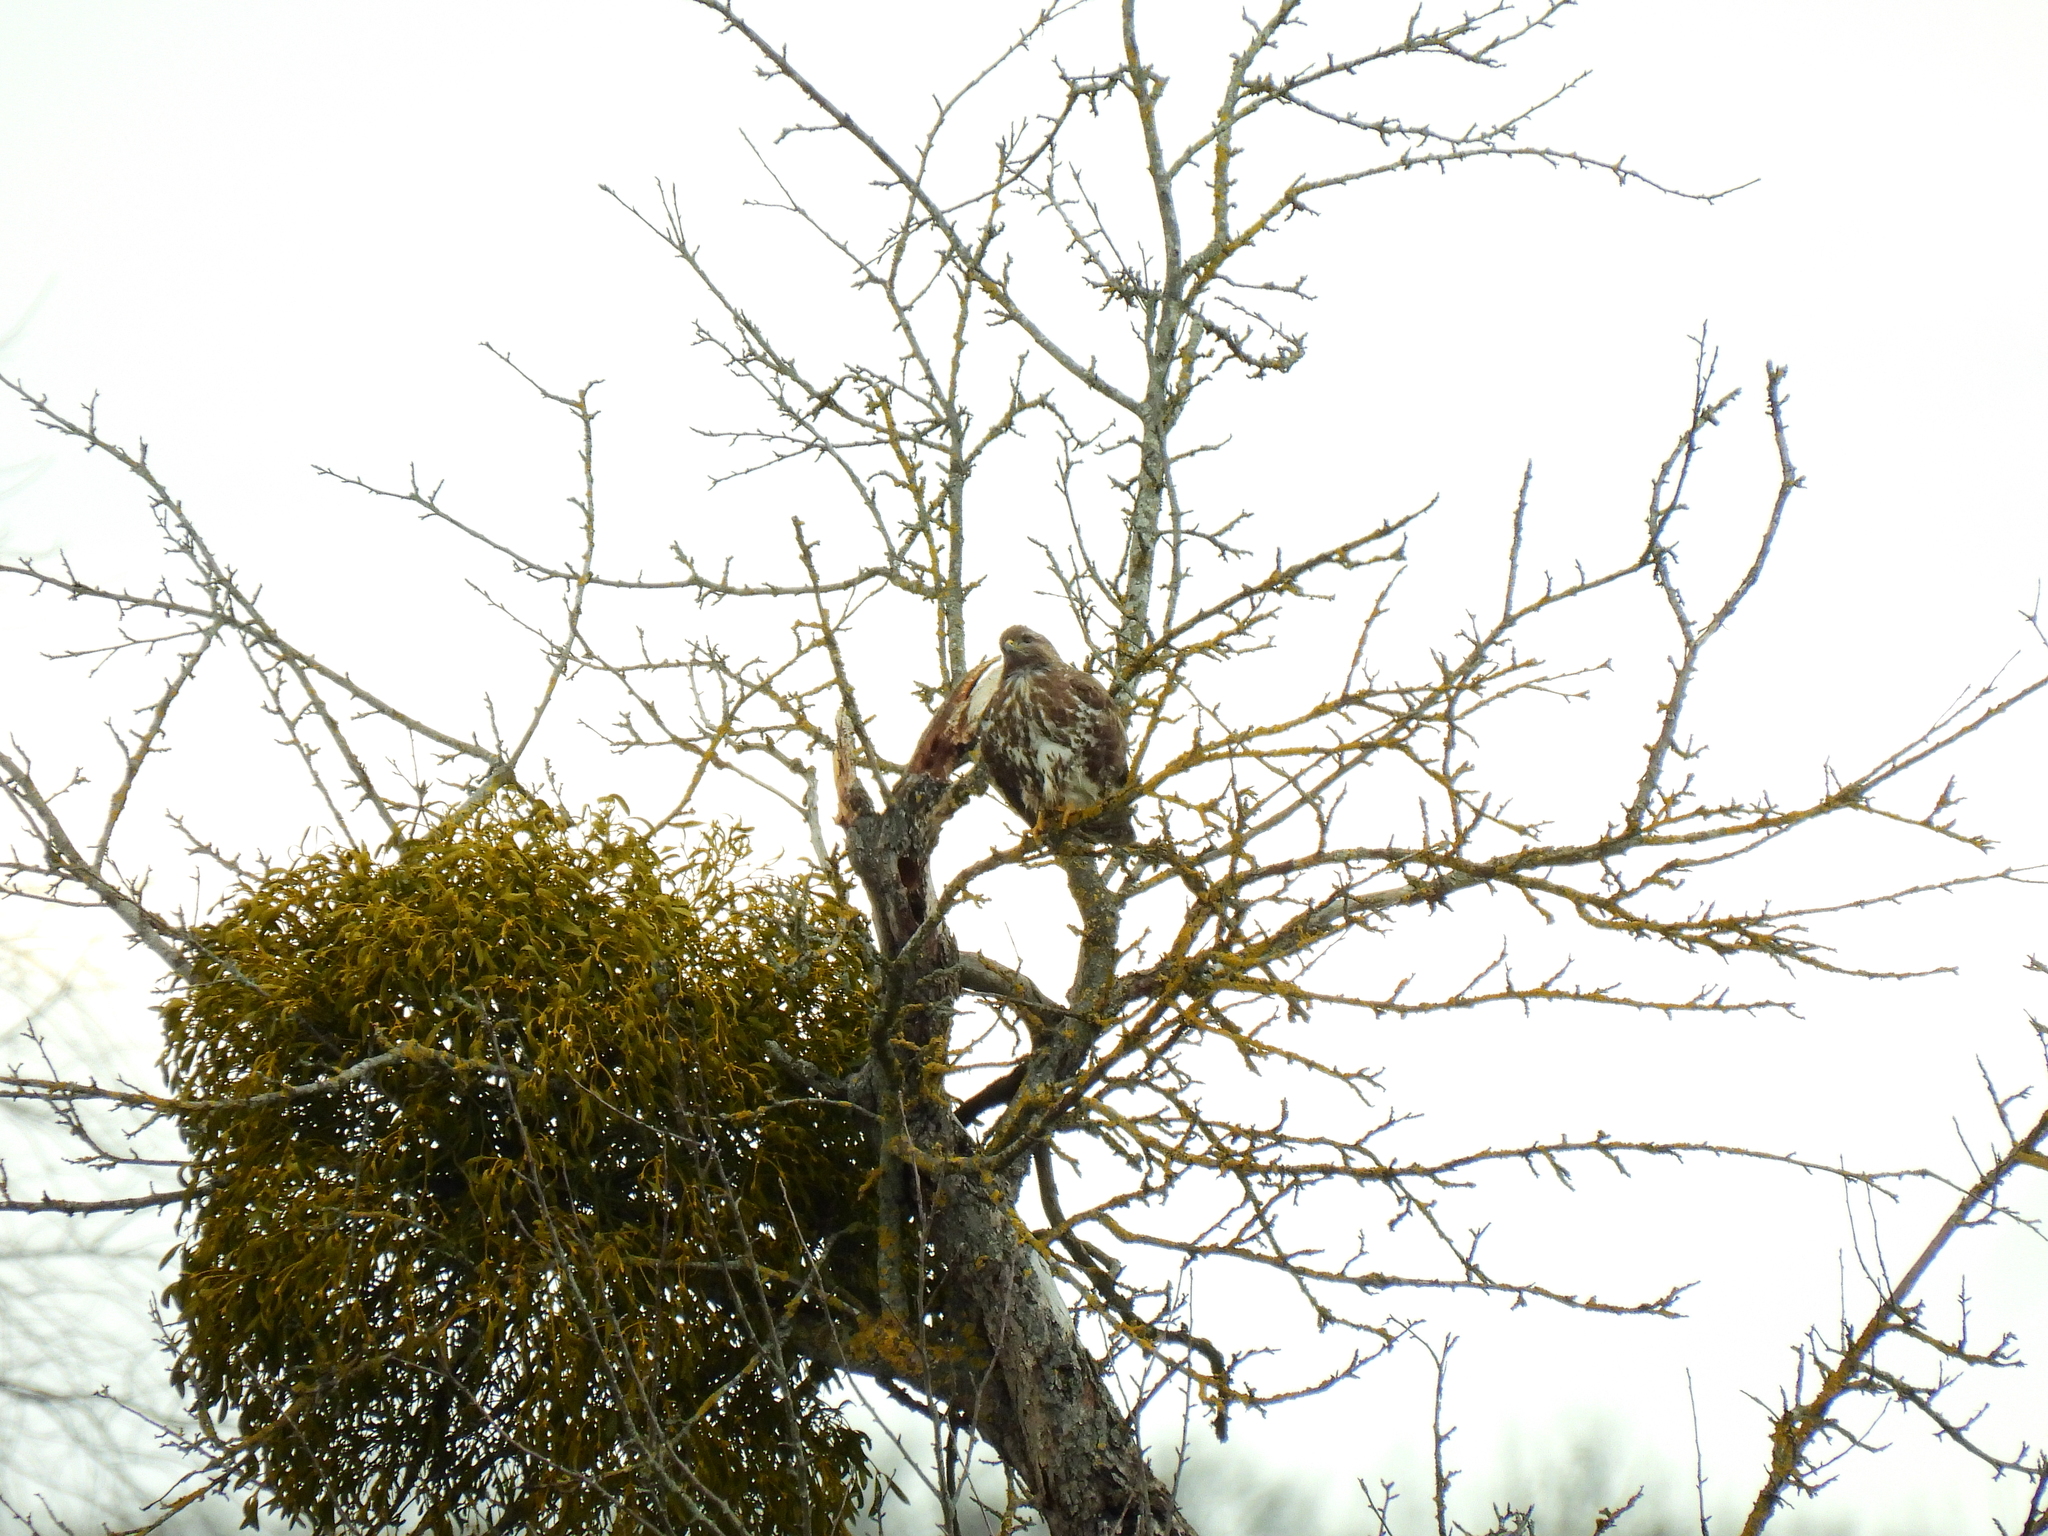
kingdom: Animalia
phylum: Chordata
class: Aves
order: Accipitriformes
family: Accipitridae
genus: Buteo
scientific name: Buteo buteo
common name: Common buzzard
